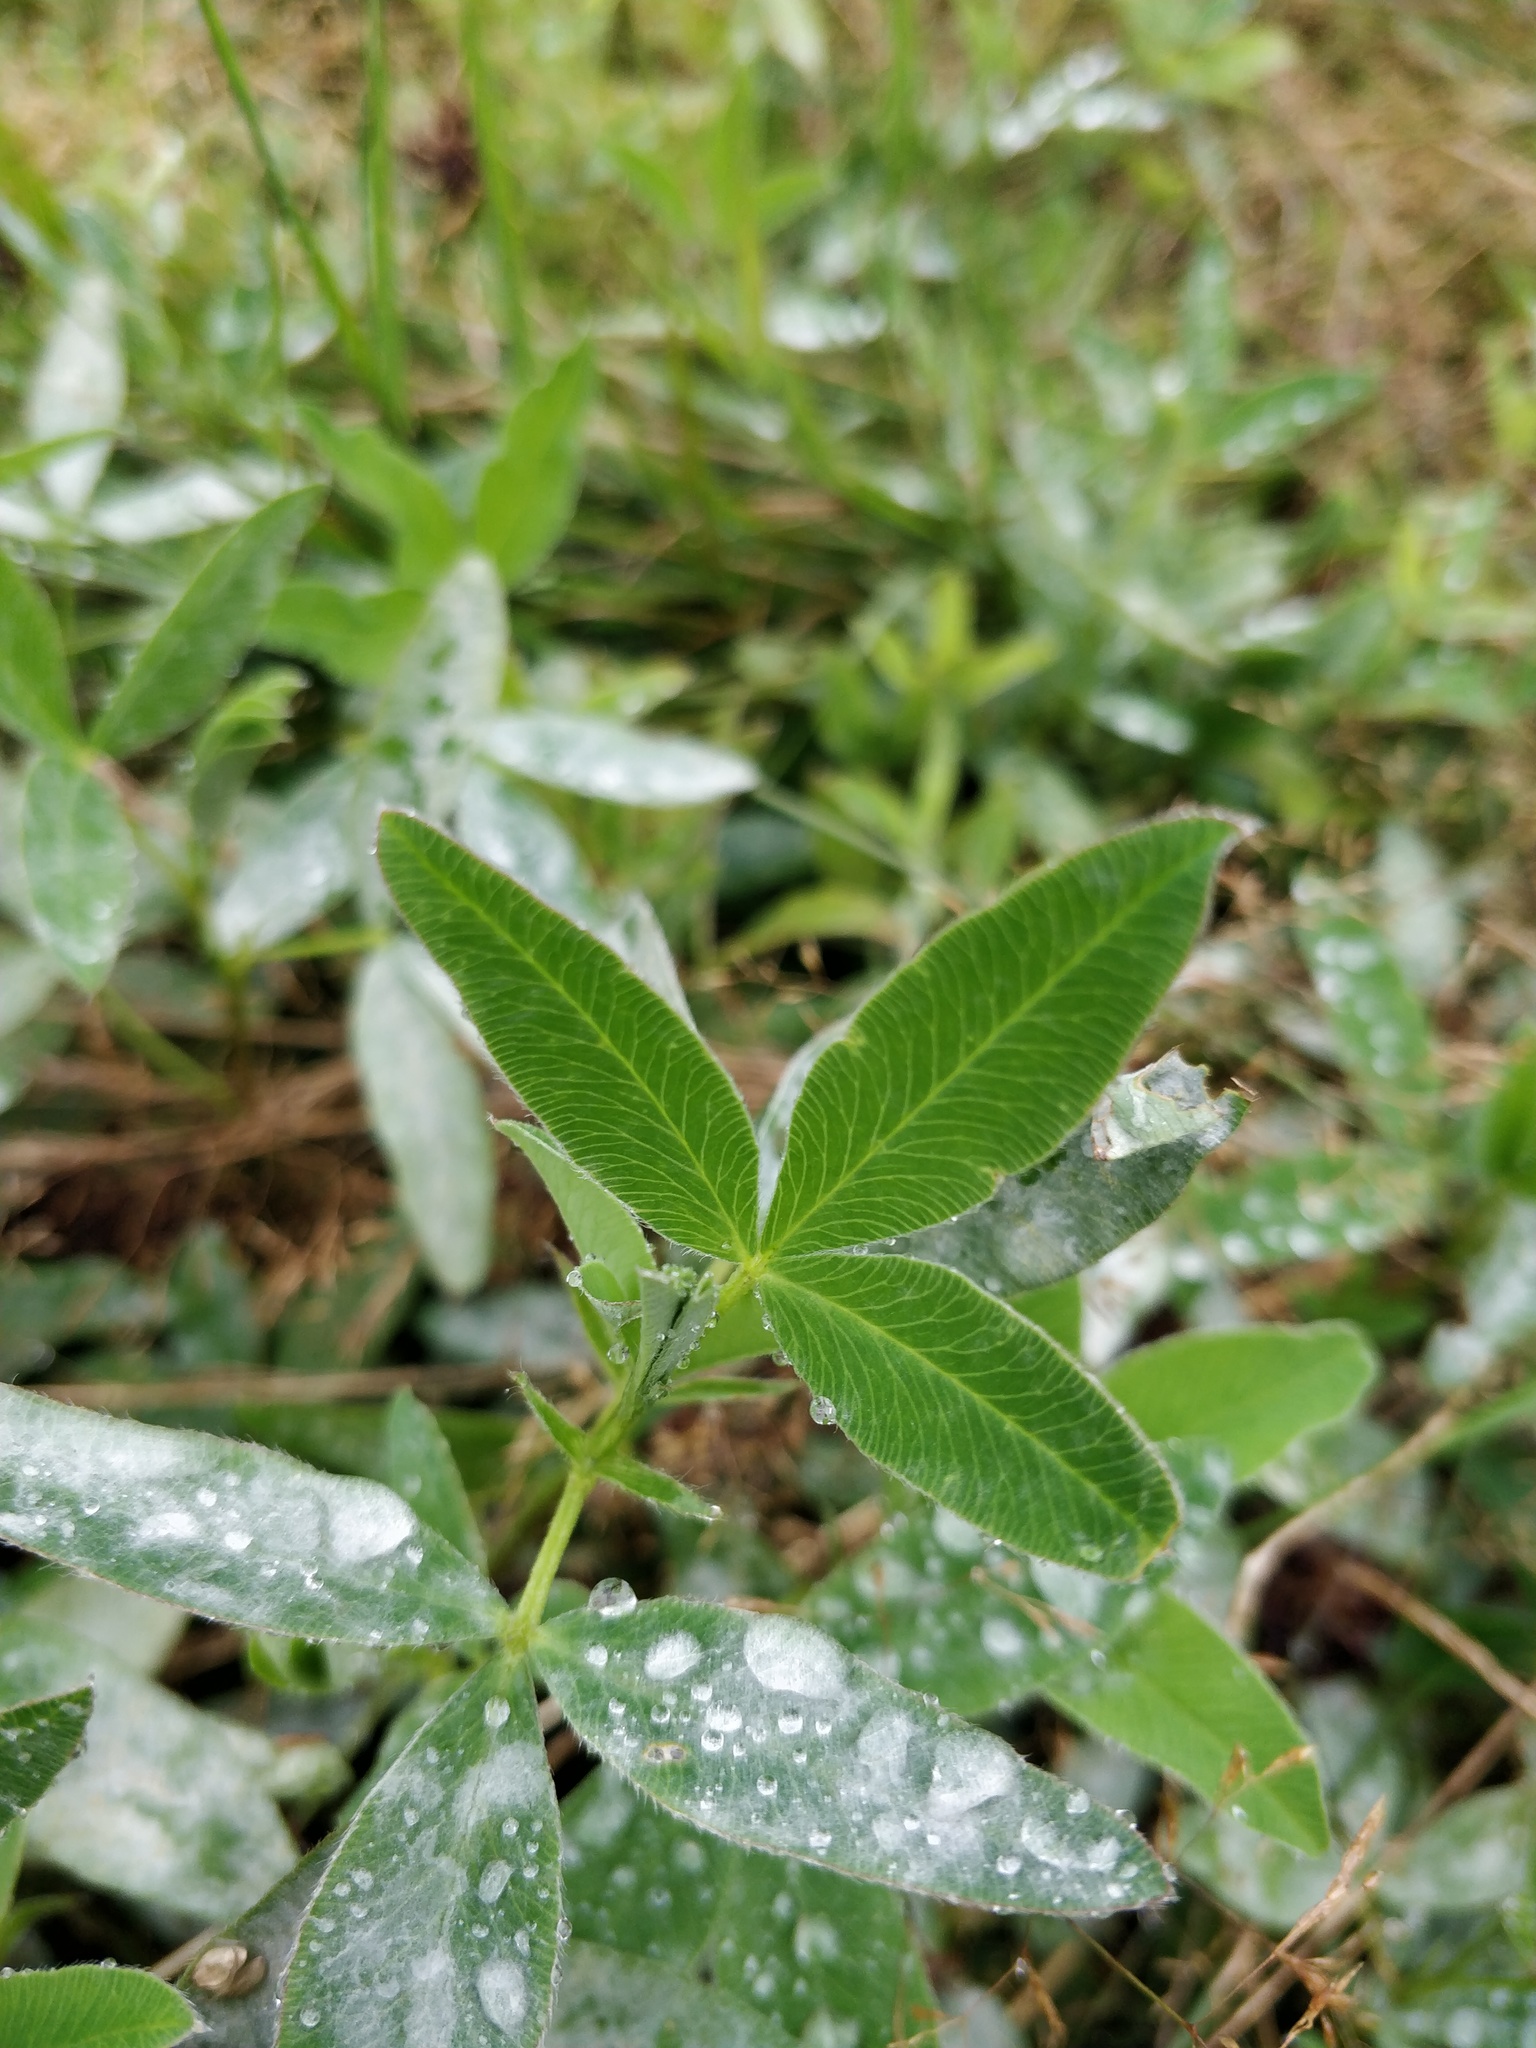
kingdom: Plantae
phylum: Tracheophyta
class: Magnoliopsida
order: Fabales
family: Fabaceae
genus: Trifolium
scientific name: Trifolium medium
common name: Zigzag clover
